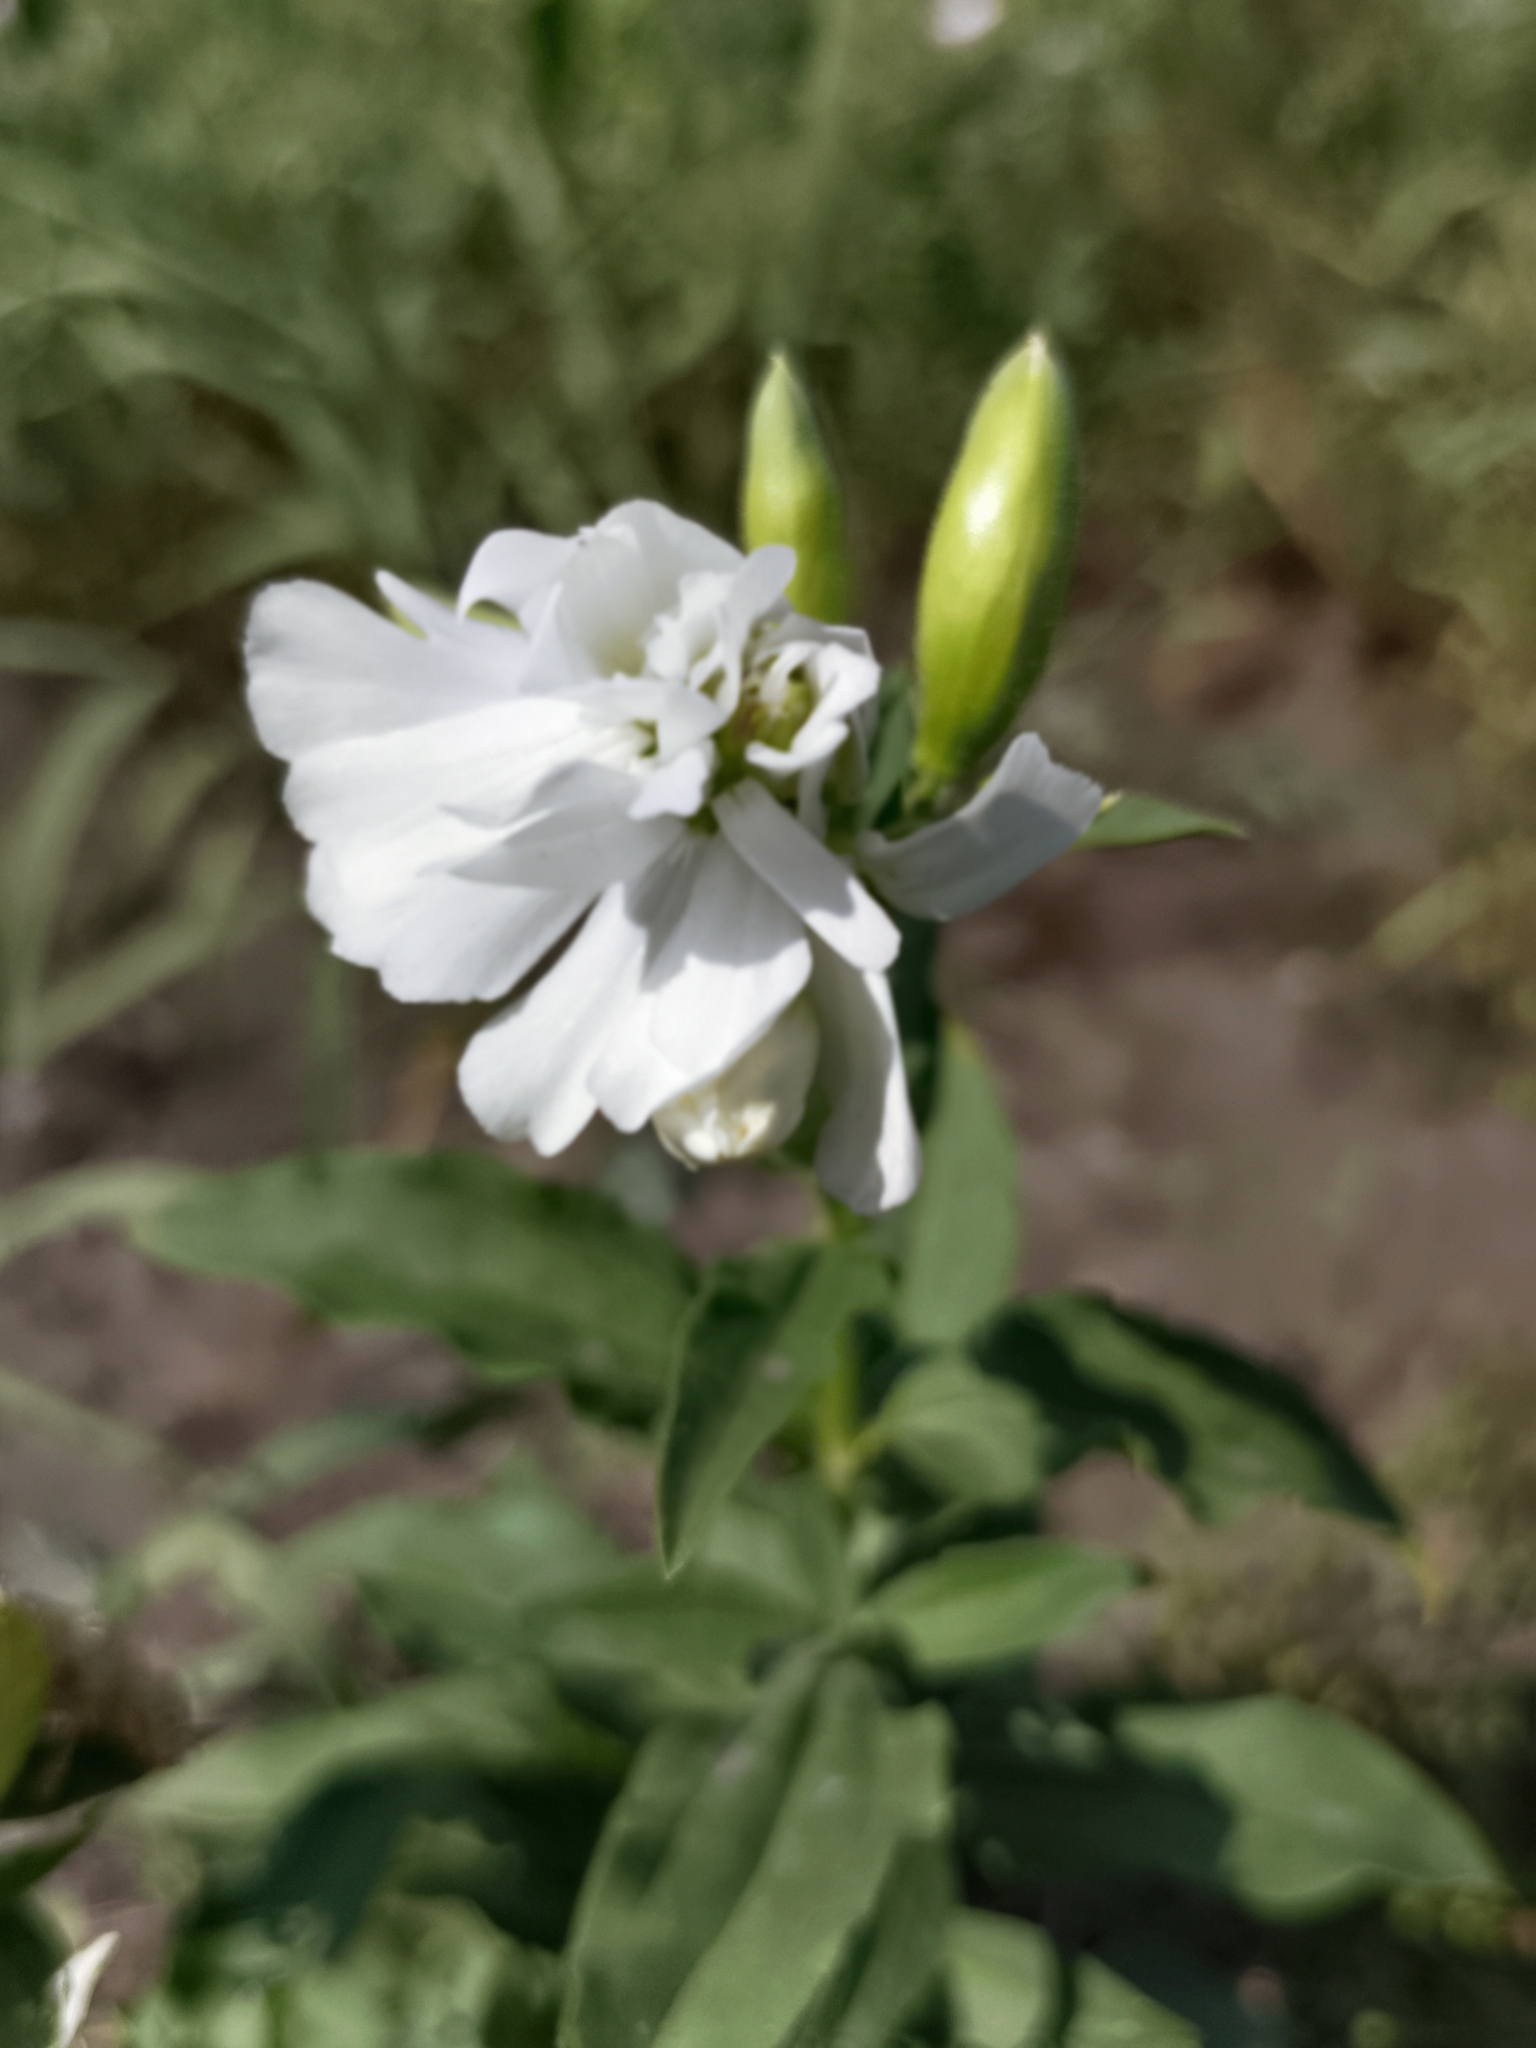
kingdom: Plantae
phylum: Tracheophyta
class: Magnoliopsida
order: Caryophyllales
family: Caryophyllaceae
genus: Saponaria
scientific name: Saponaria officinalis
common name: Soapwort
